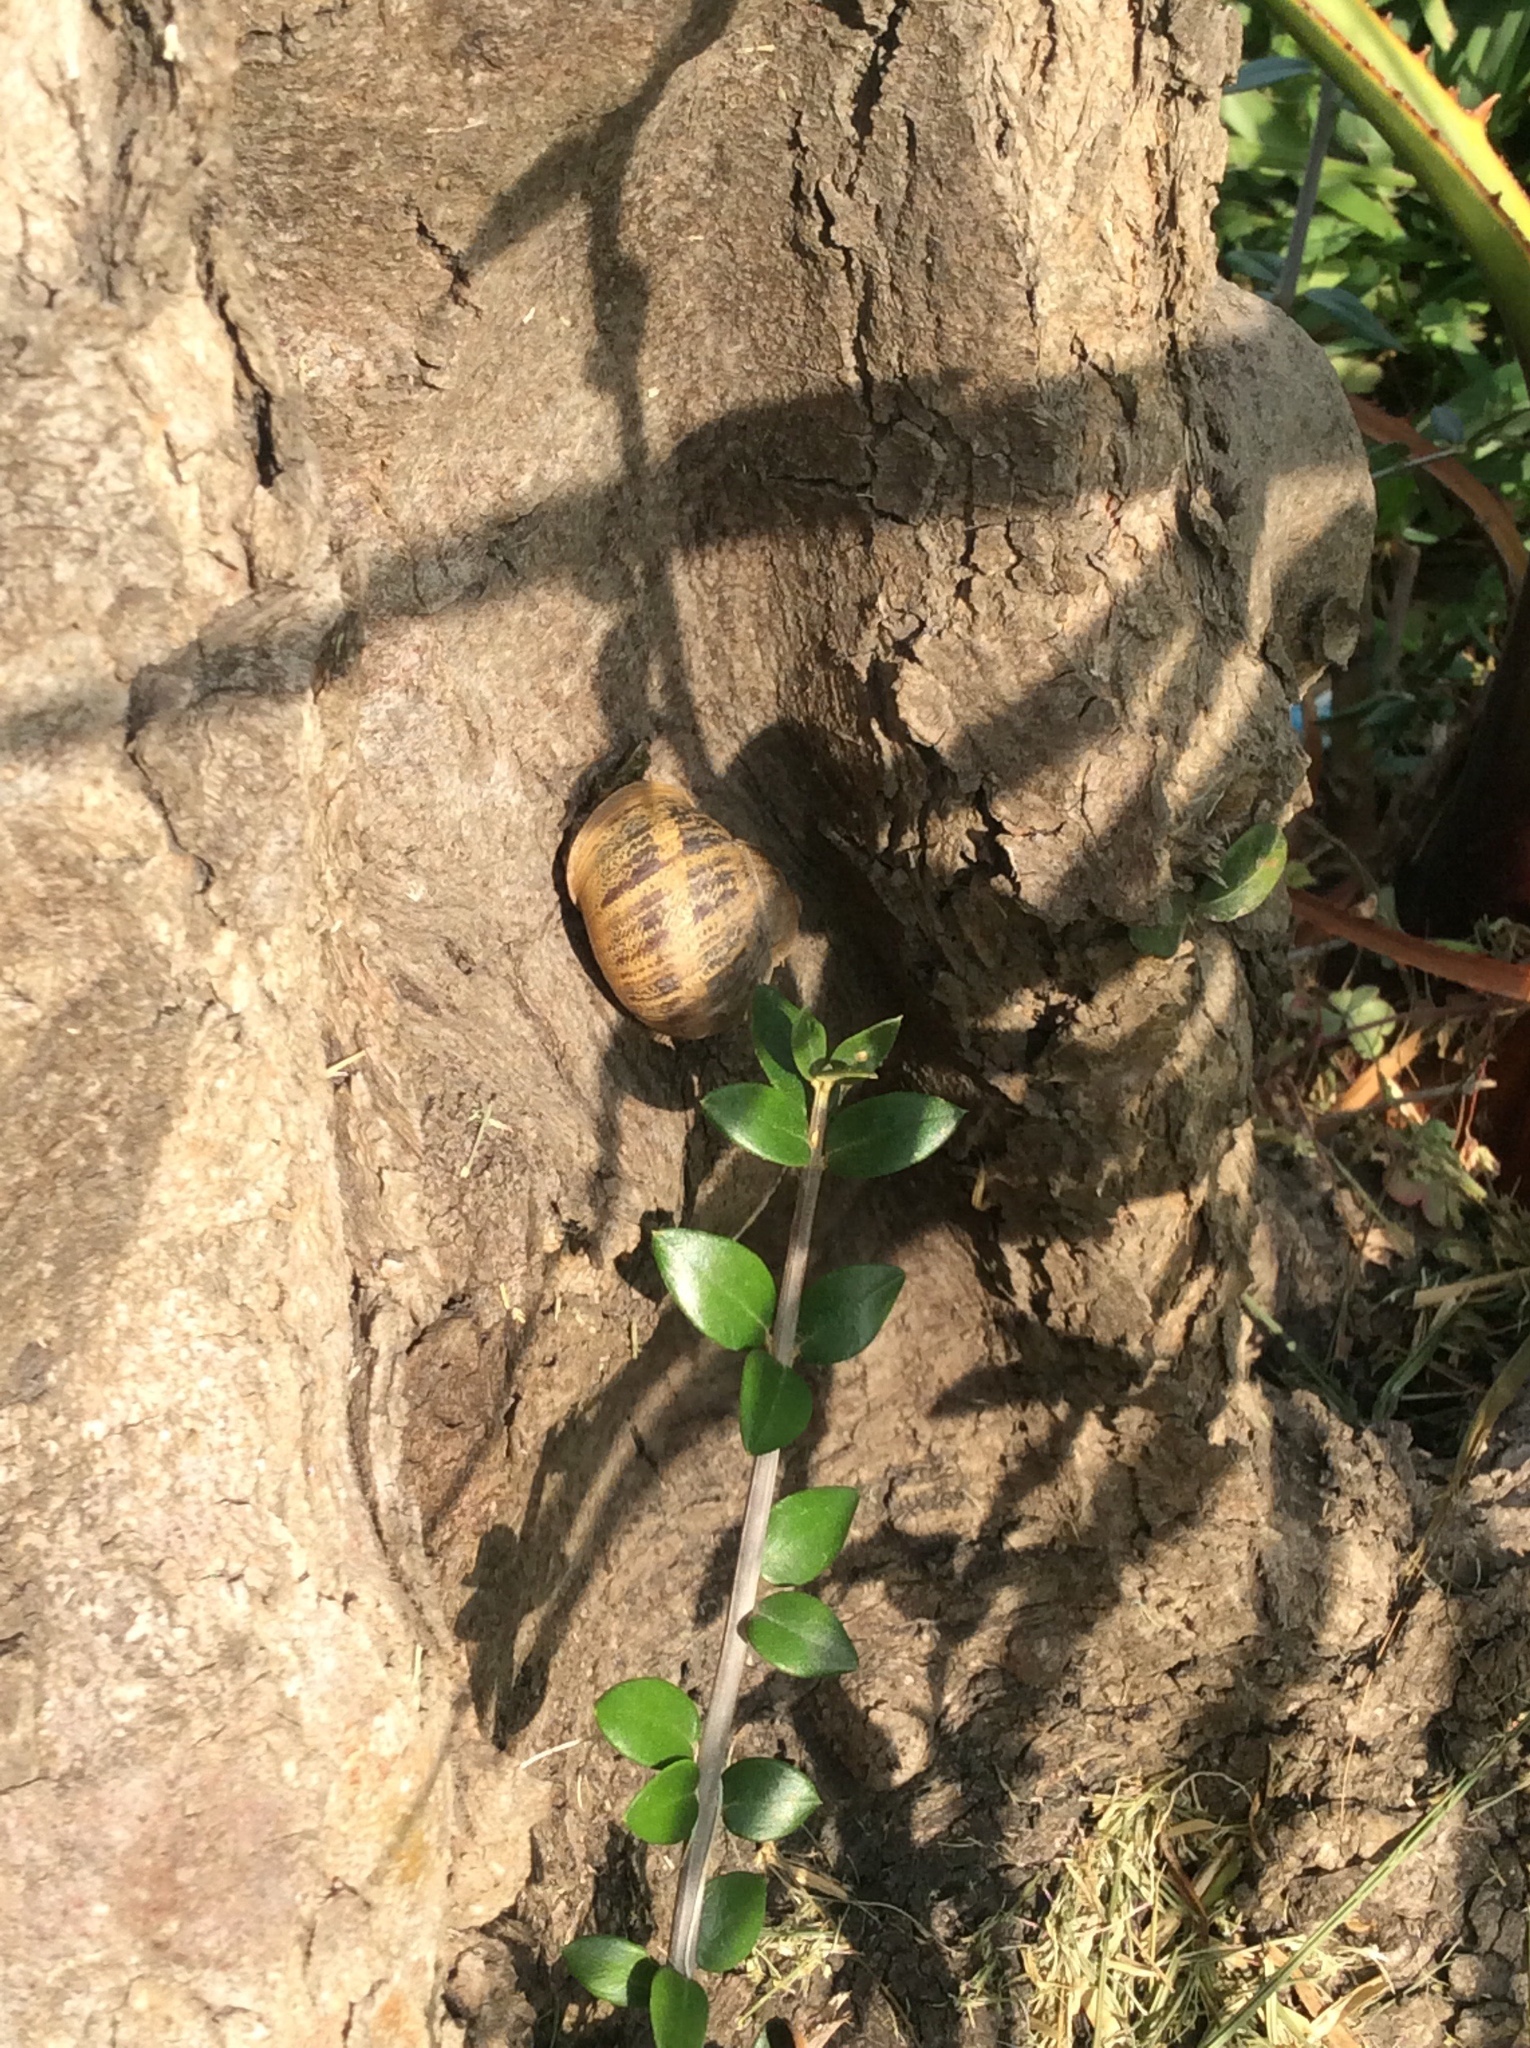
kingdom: Animalia
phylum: Mollusca
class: Gastropoda
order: Stylommatophora
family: Helicidae
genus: Cornu
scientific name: Cornu aspersum
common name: Brown garden snail
